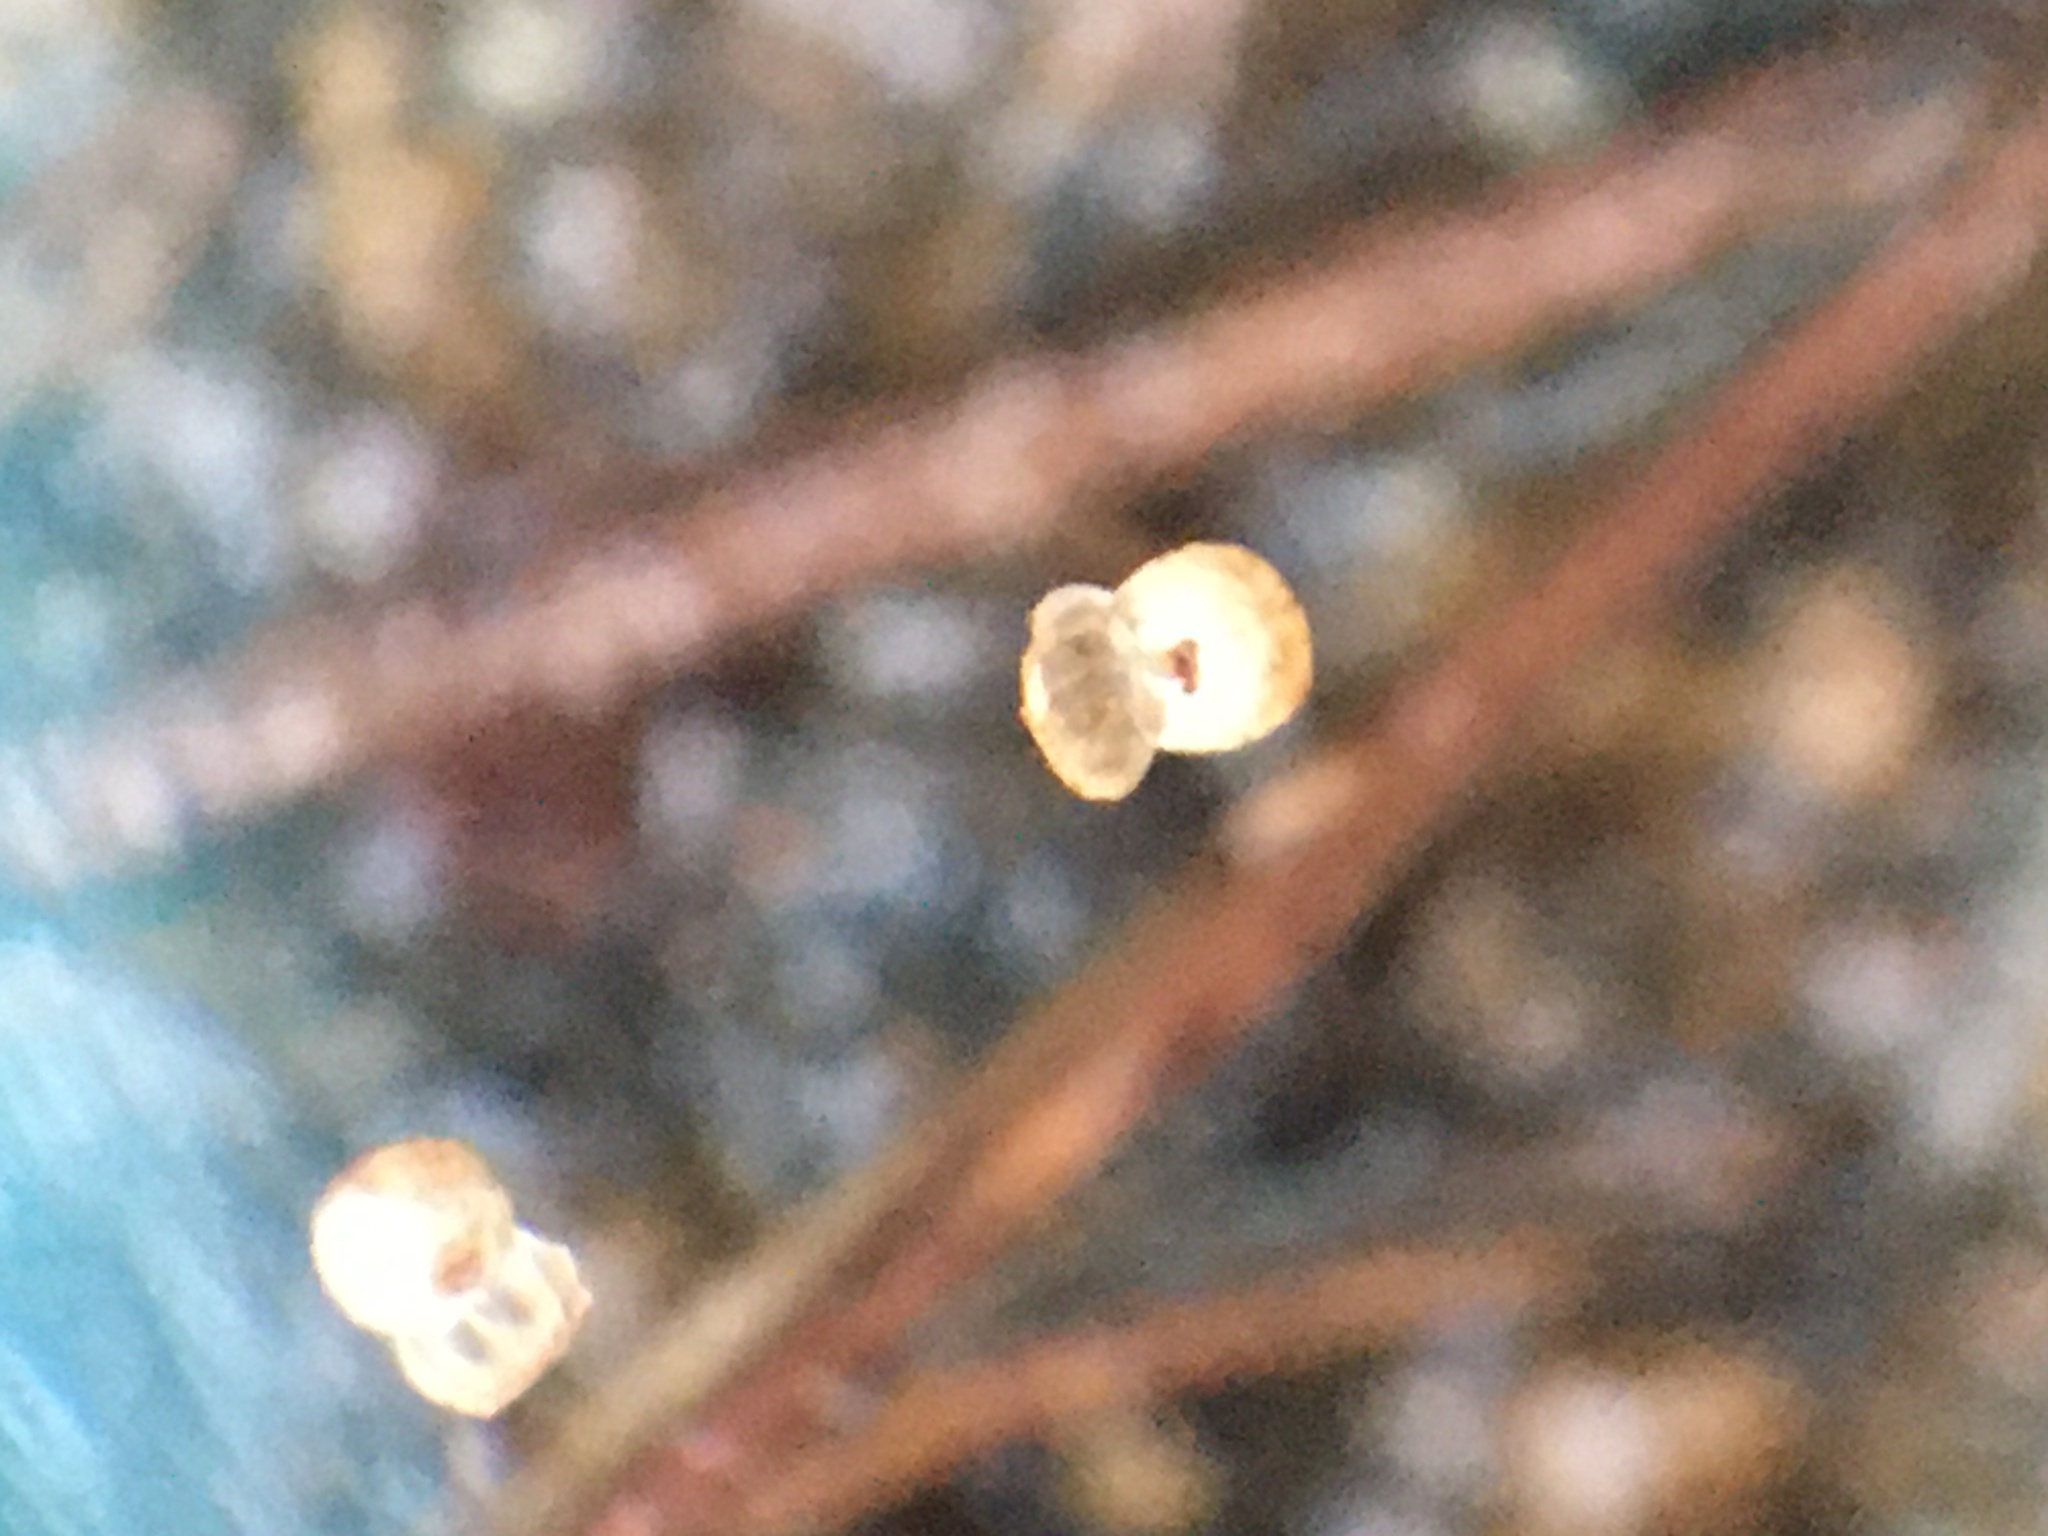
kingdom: Plantae
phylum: Tracheophyta
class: Magnoliopsida
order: Lamiales
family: Lentibulariaceae
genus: Utricularia
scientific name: Utricularia subulata
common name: Tiny bladderwort
